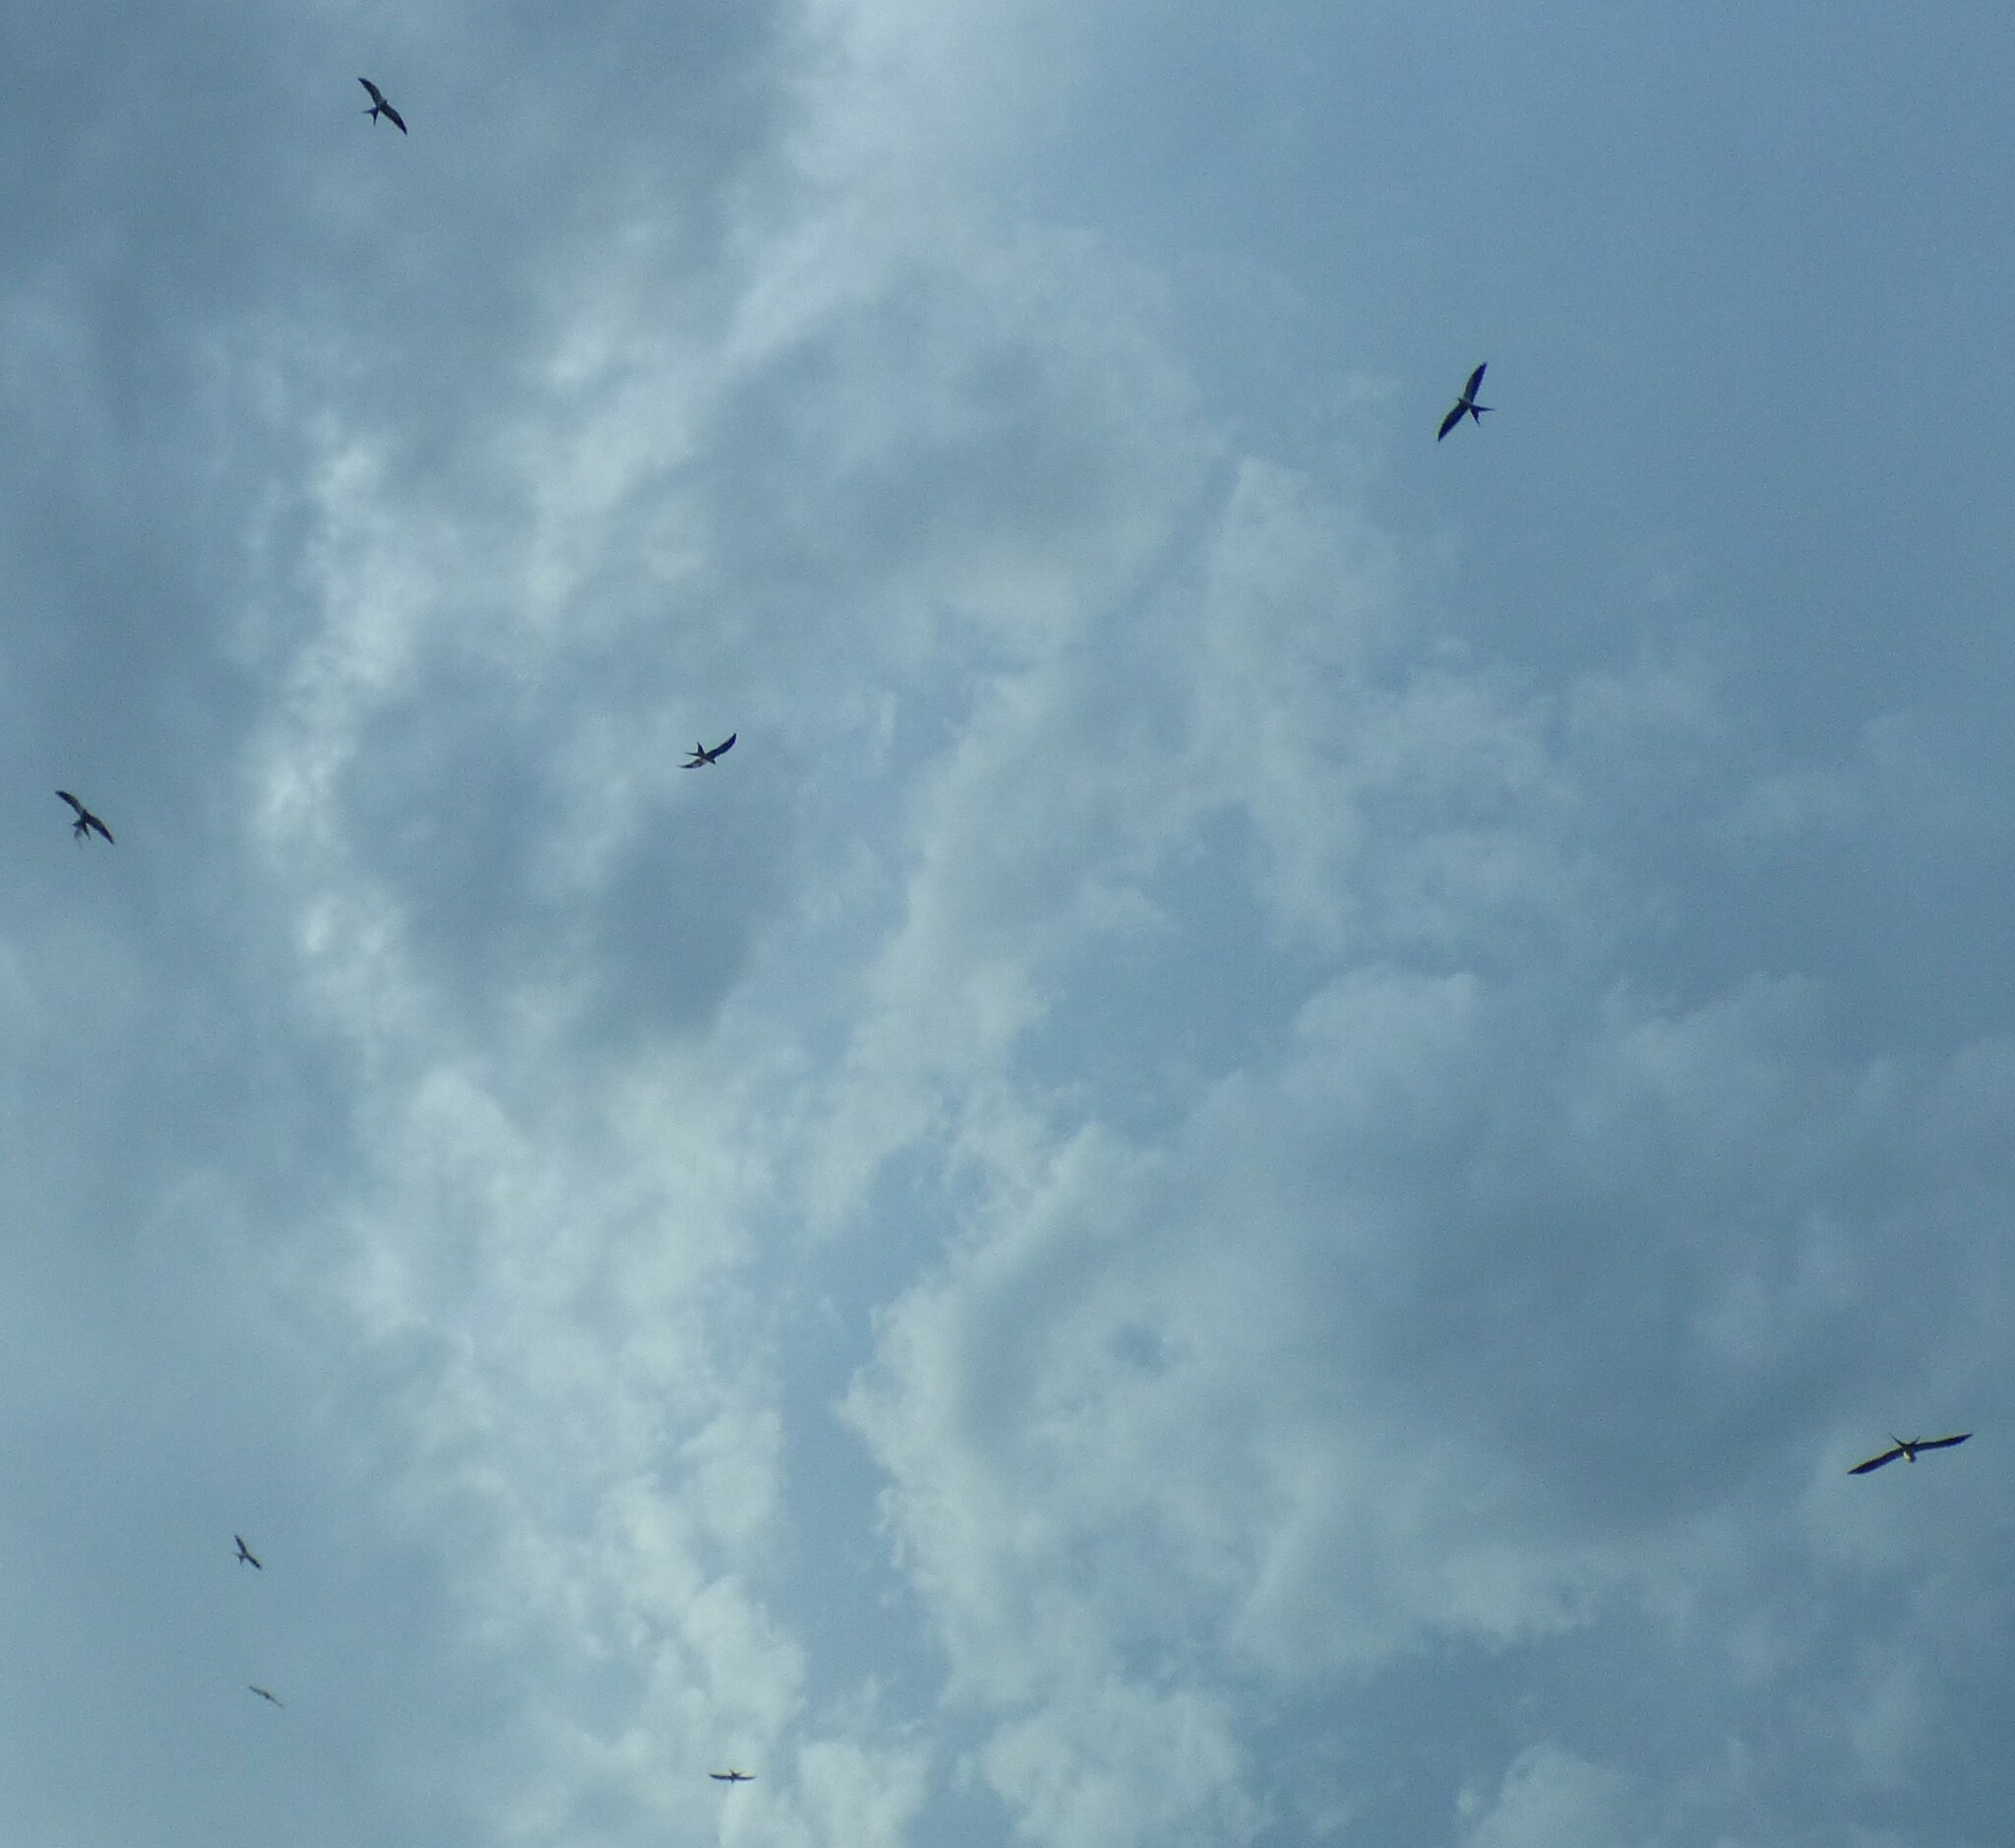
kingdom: Animalia
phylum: Chordata
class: Aves
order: Accipitriformes
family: Accipitridae
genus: Elanoides
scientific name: Elanoides forficatus
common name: Swallow-tailed kite
